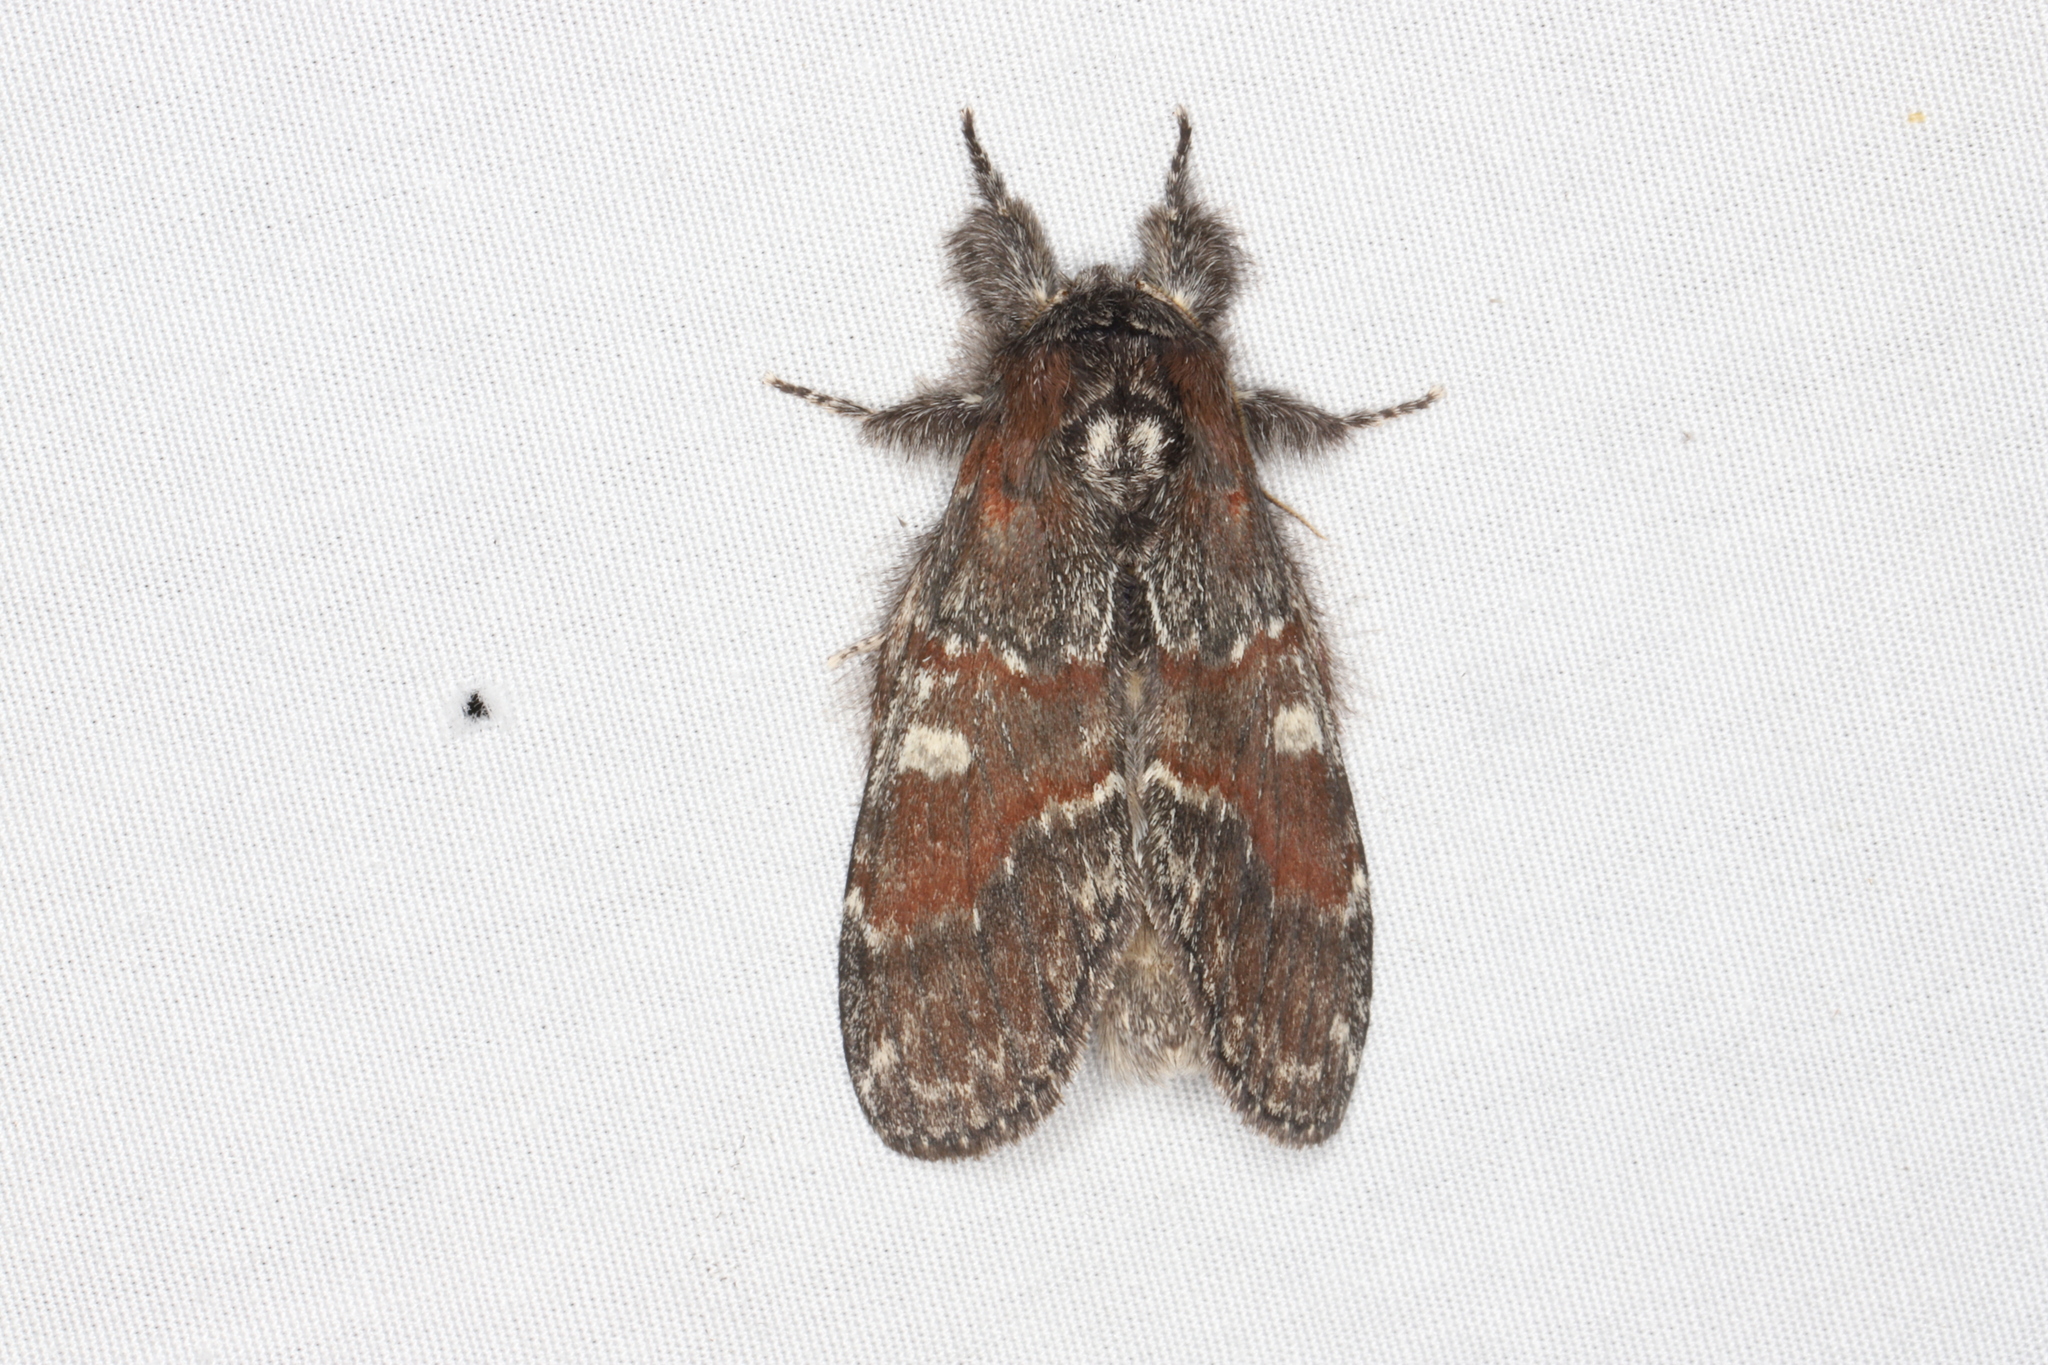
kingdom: Animalia
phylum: Arthropoda
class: Insecta
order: Lepidoptera
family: Notodontidae
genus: Peridea
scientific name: Peridea ferruginea
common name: Chocolate prominent
